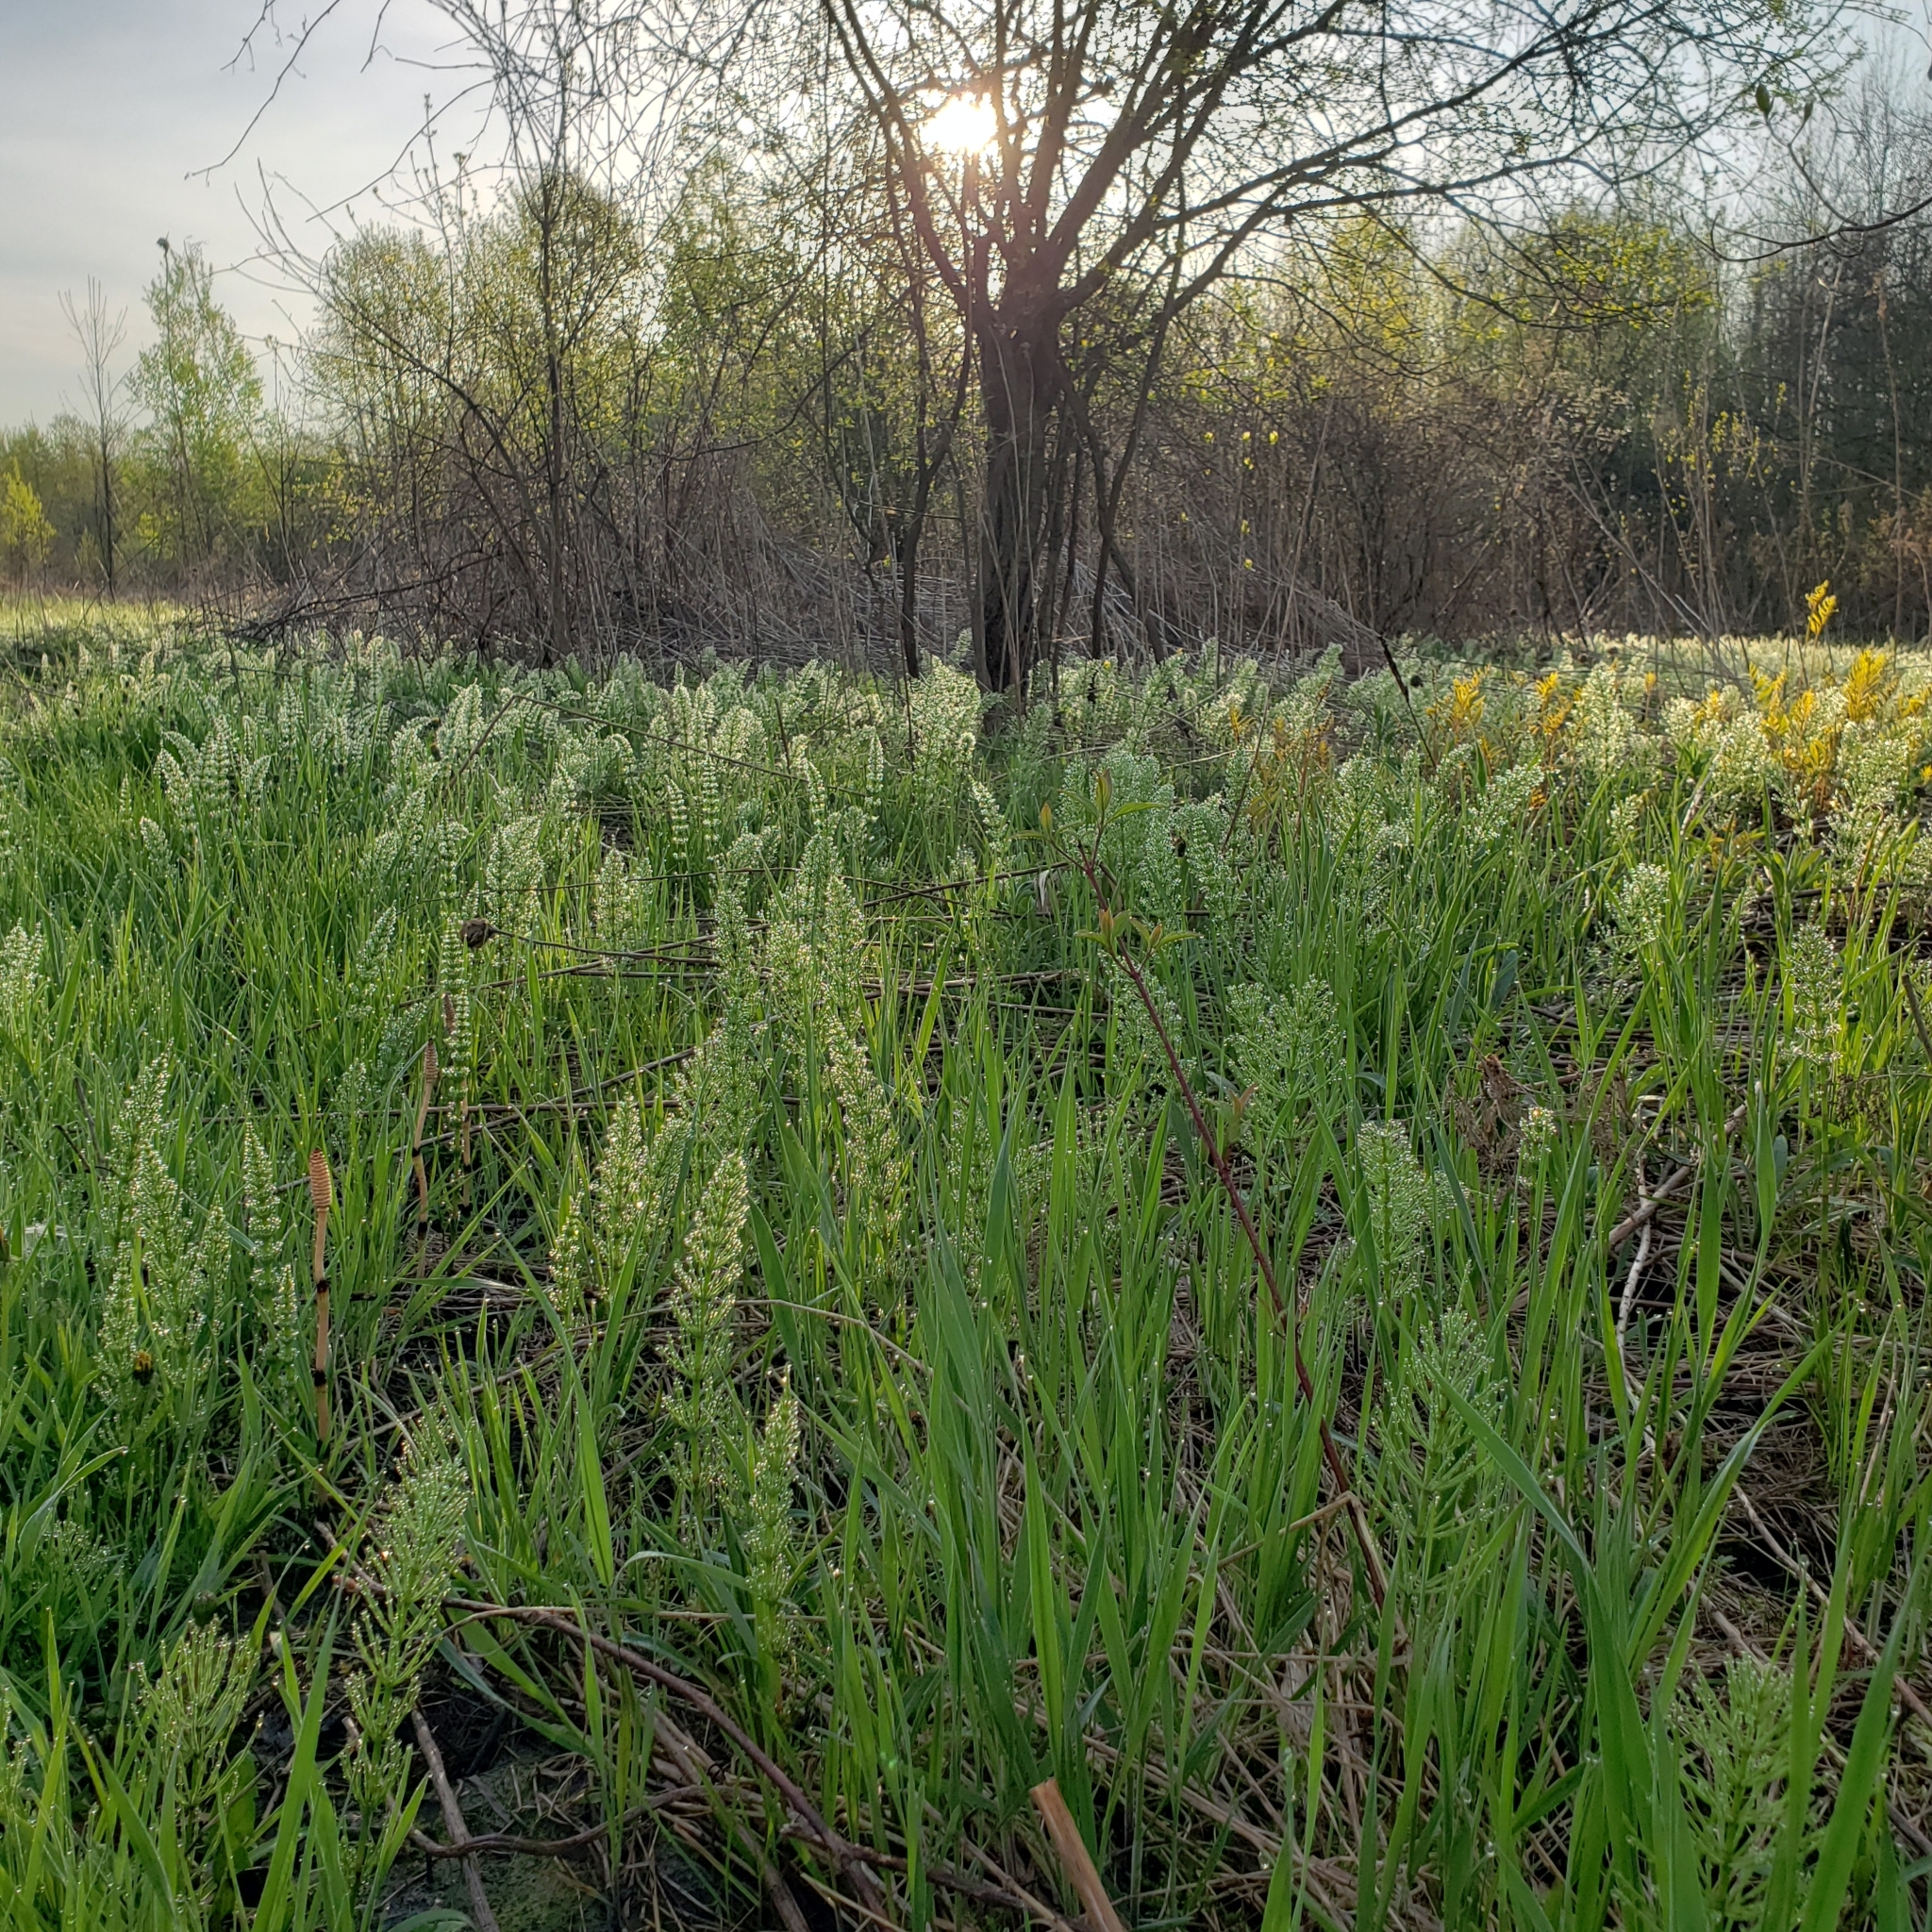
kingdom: Plantae
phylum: Tracheophyta
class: Polypodiopsida
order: Equisetales
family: Equisetaceae
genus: Equisetum
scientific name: Equisetum arvense
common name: Field horsetail
